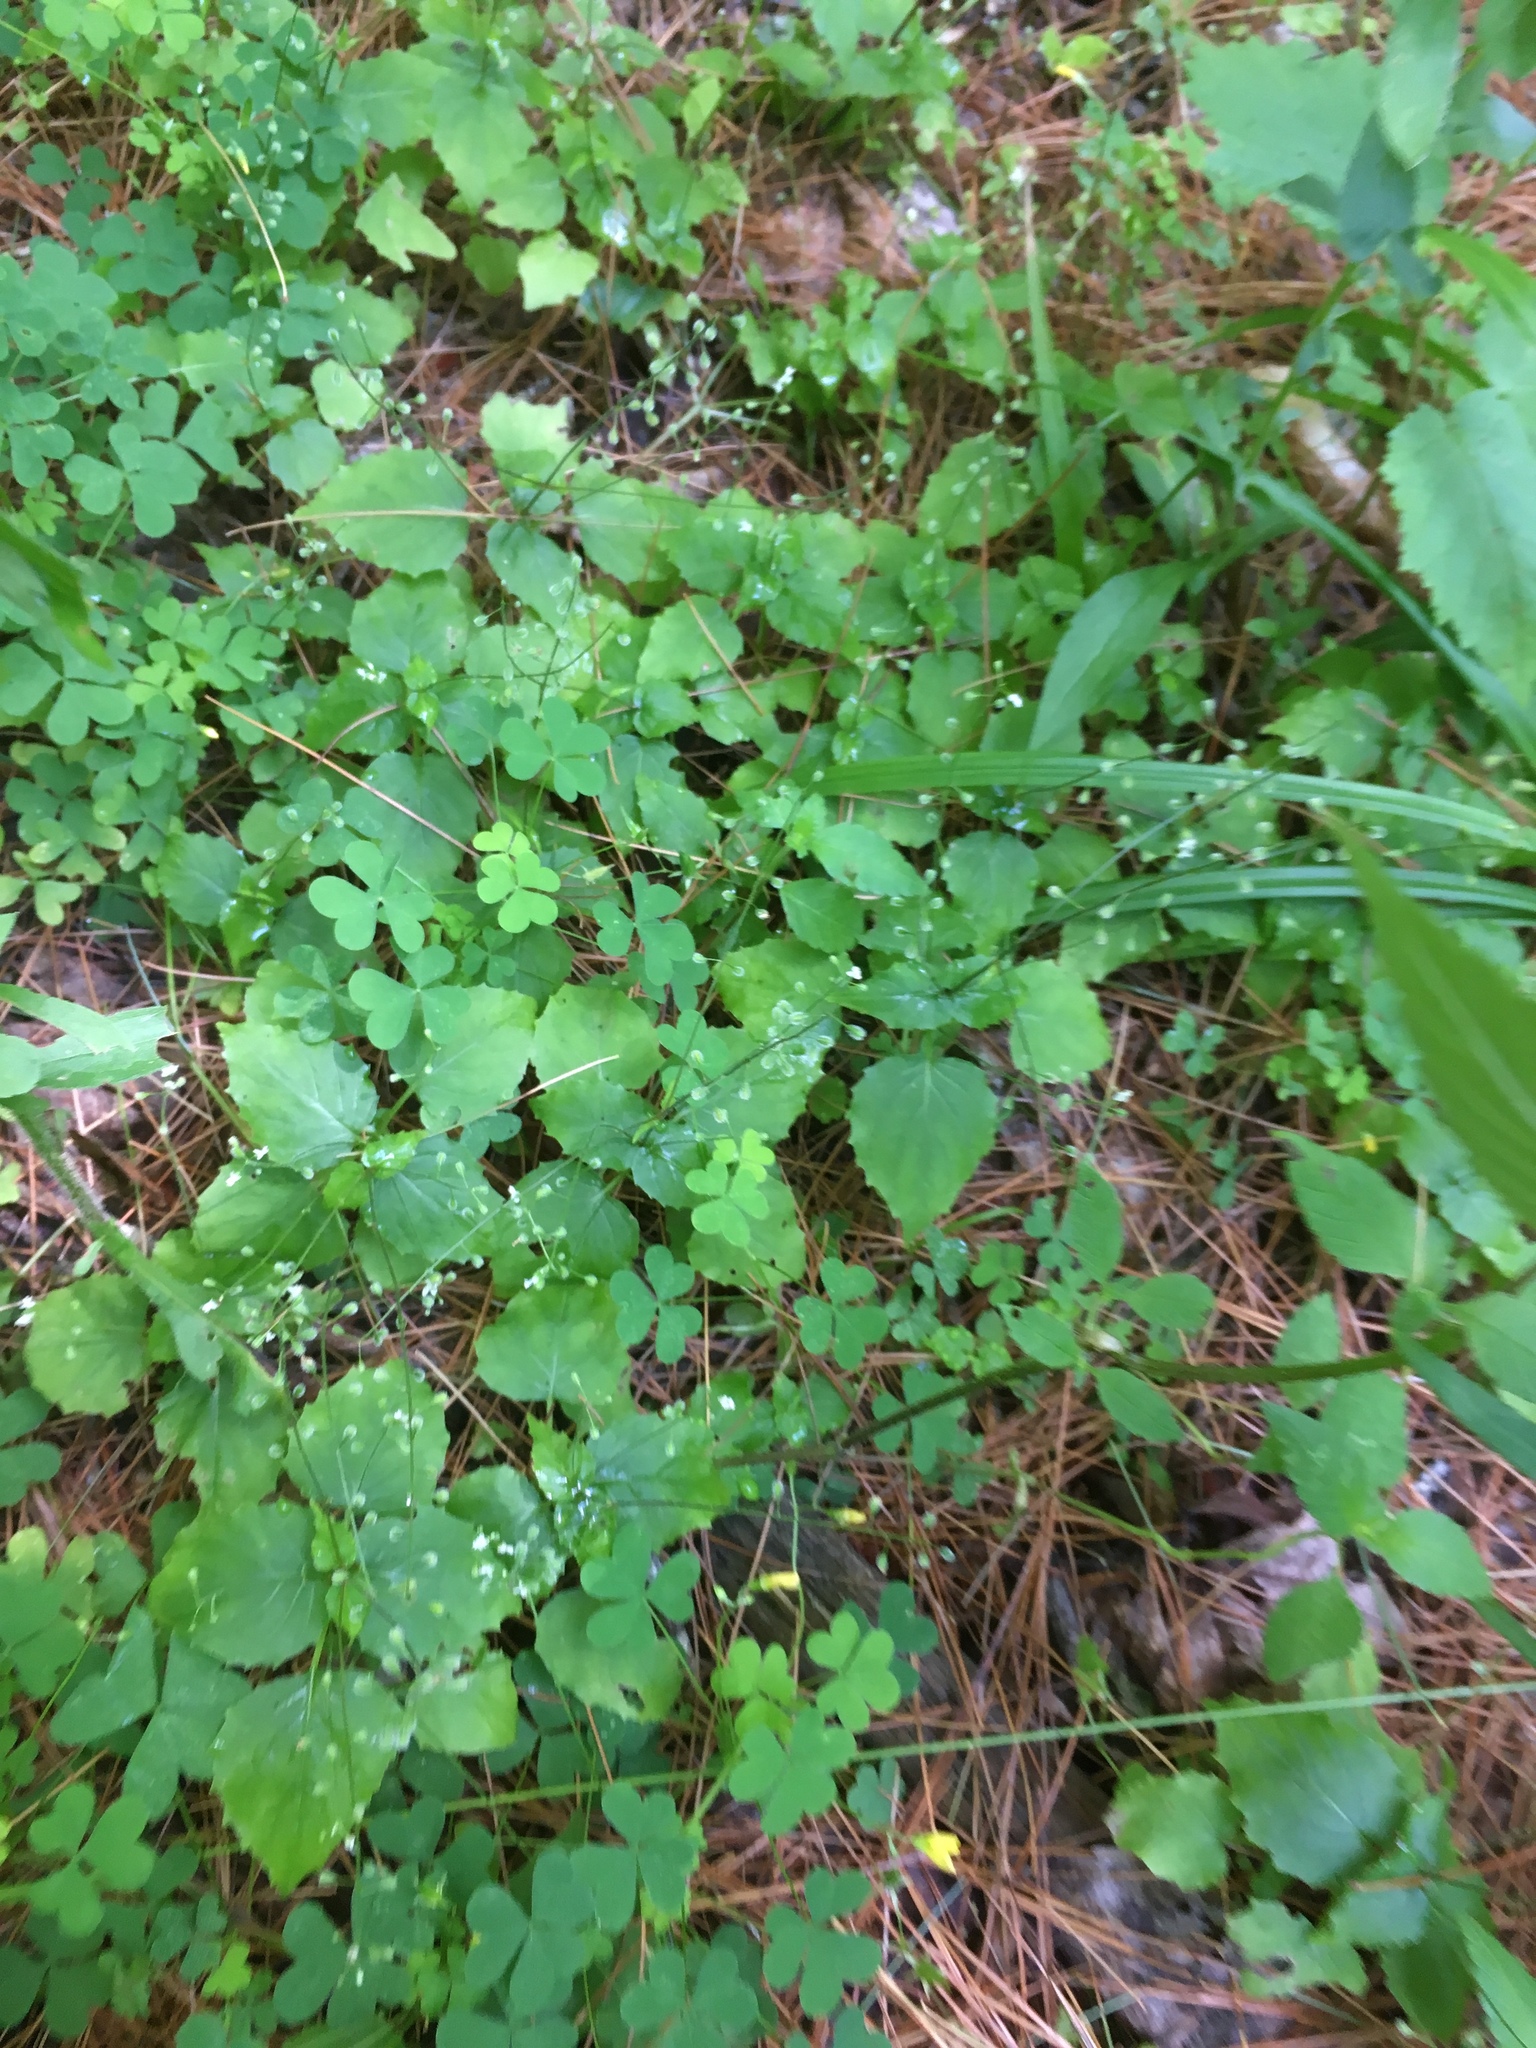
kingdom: Plantae
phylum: Tracheophyta
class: Magnoliopsida
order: Myrtales
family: Onagraceae
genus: Circaea
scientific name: Circaea alpina
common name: Alpine enchanter's-nightshade
